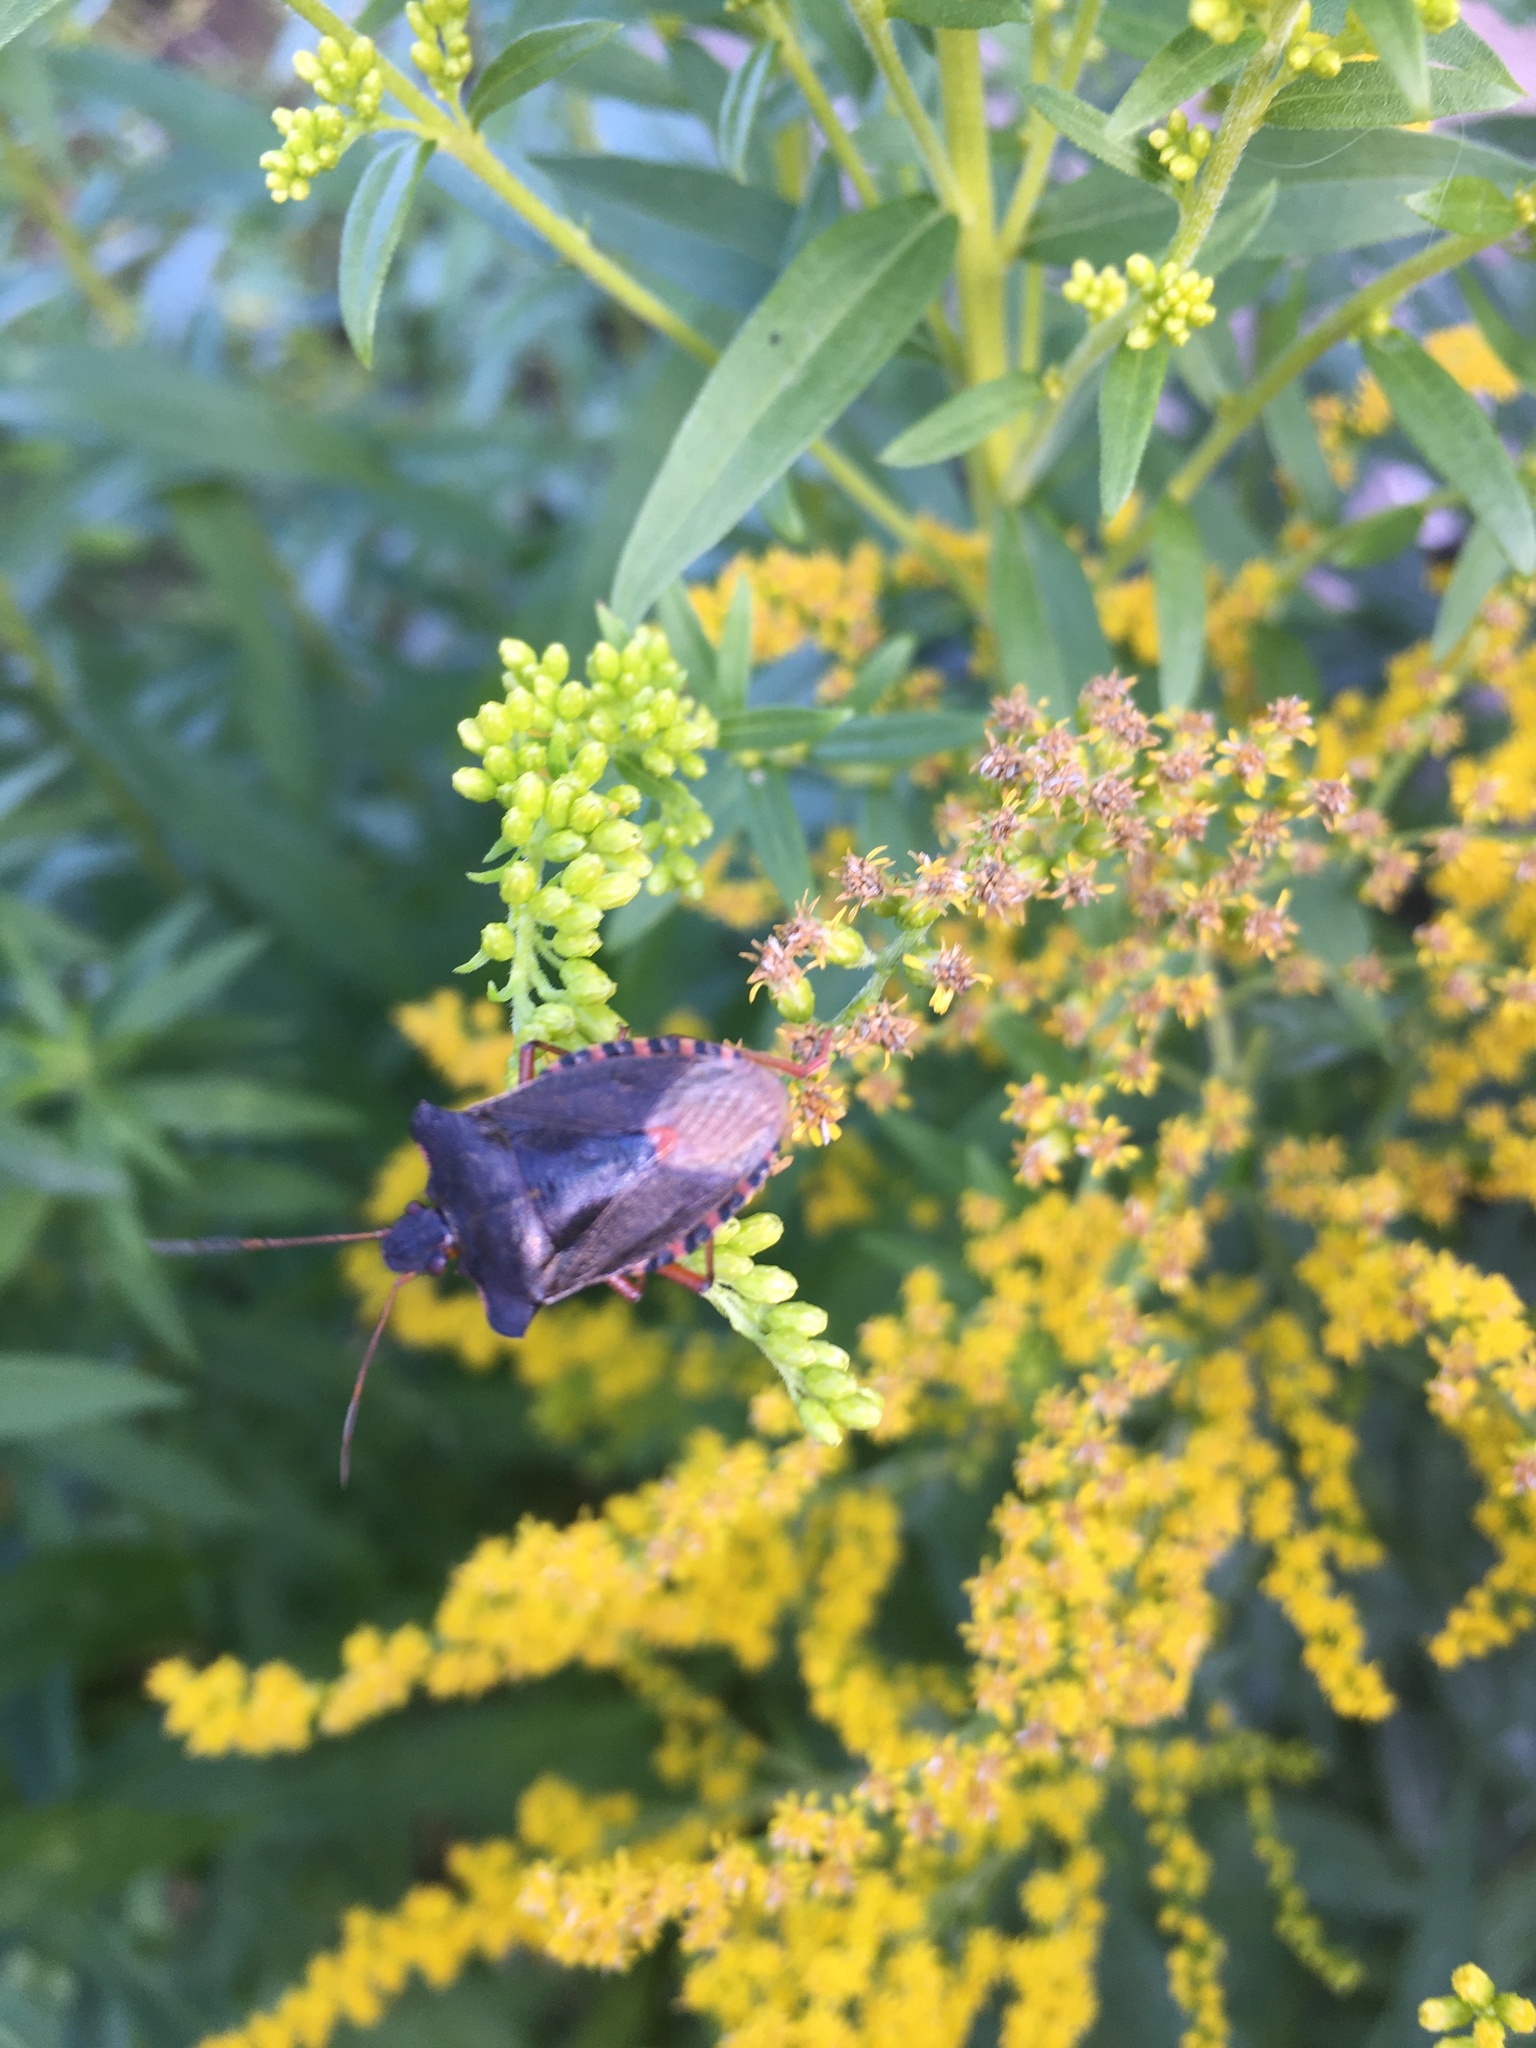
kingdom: Animalia
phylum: Arthropoda
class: Insecta
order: Hemiptera
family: Pentatomidae
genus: Pentatoma
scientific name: Pentatoma rufipes
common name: Forest bug
